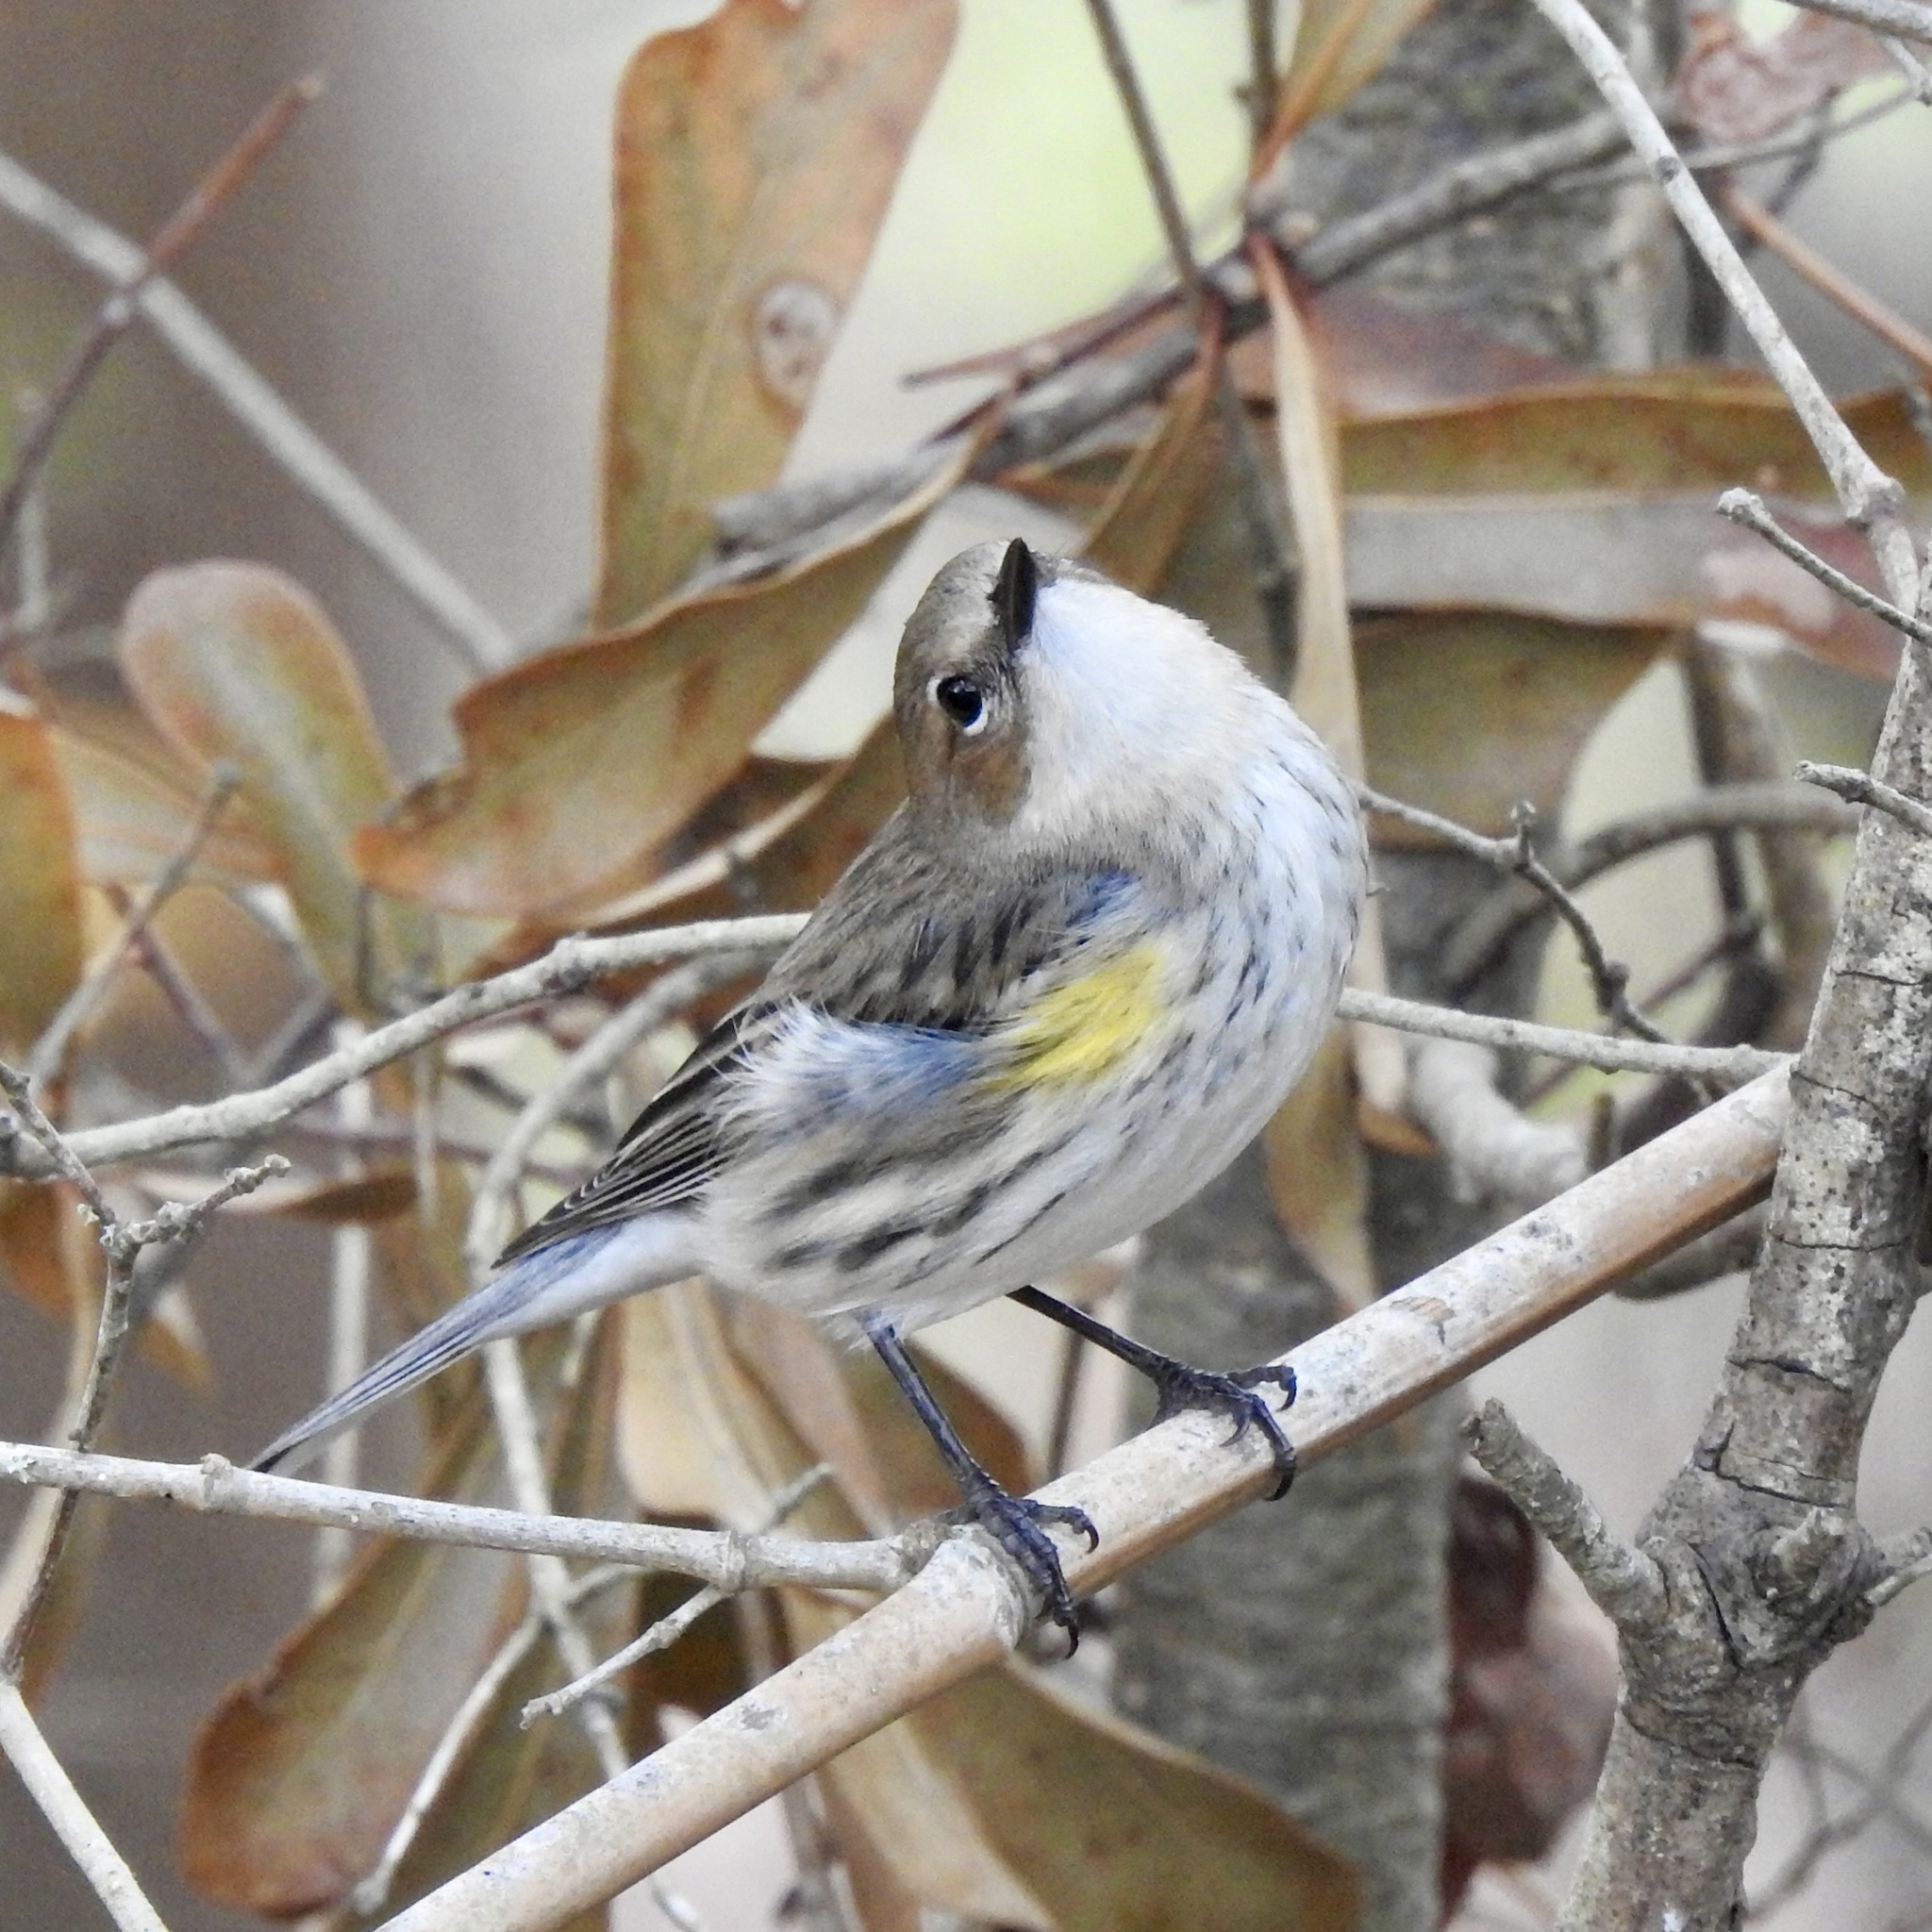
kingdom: Animalia
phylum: Chordata
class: Aves
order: Passeriformes
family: Parulidae
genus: Setophaga
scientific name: Setophaga coronata
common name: Myrtle warbler
